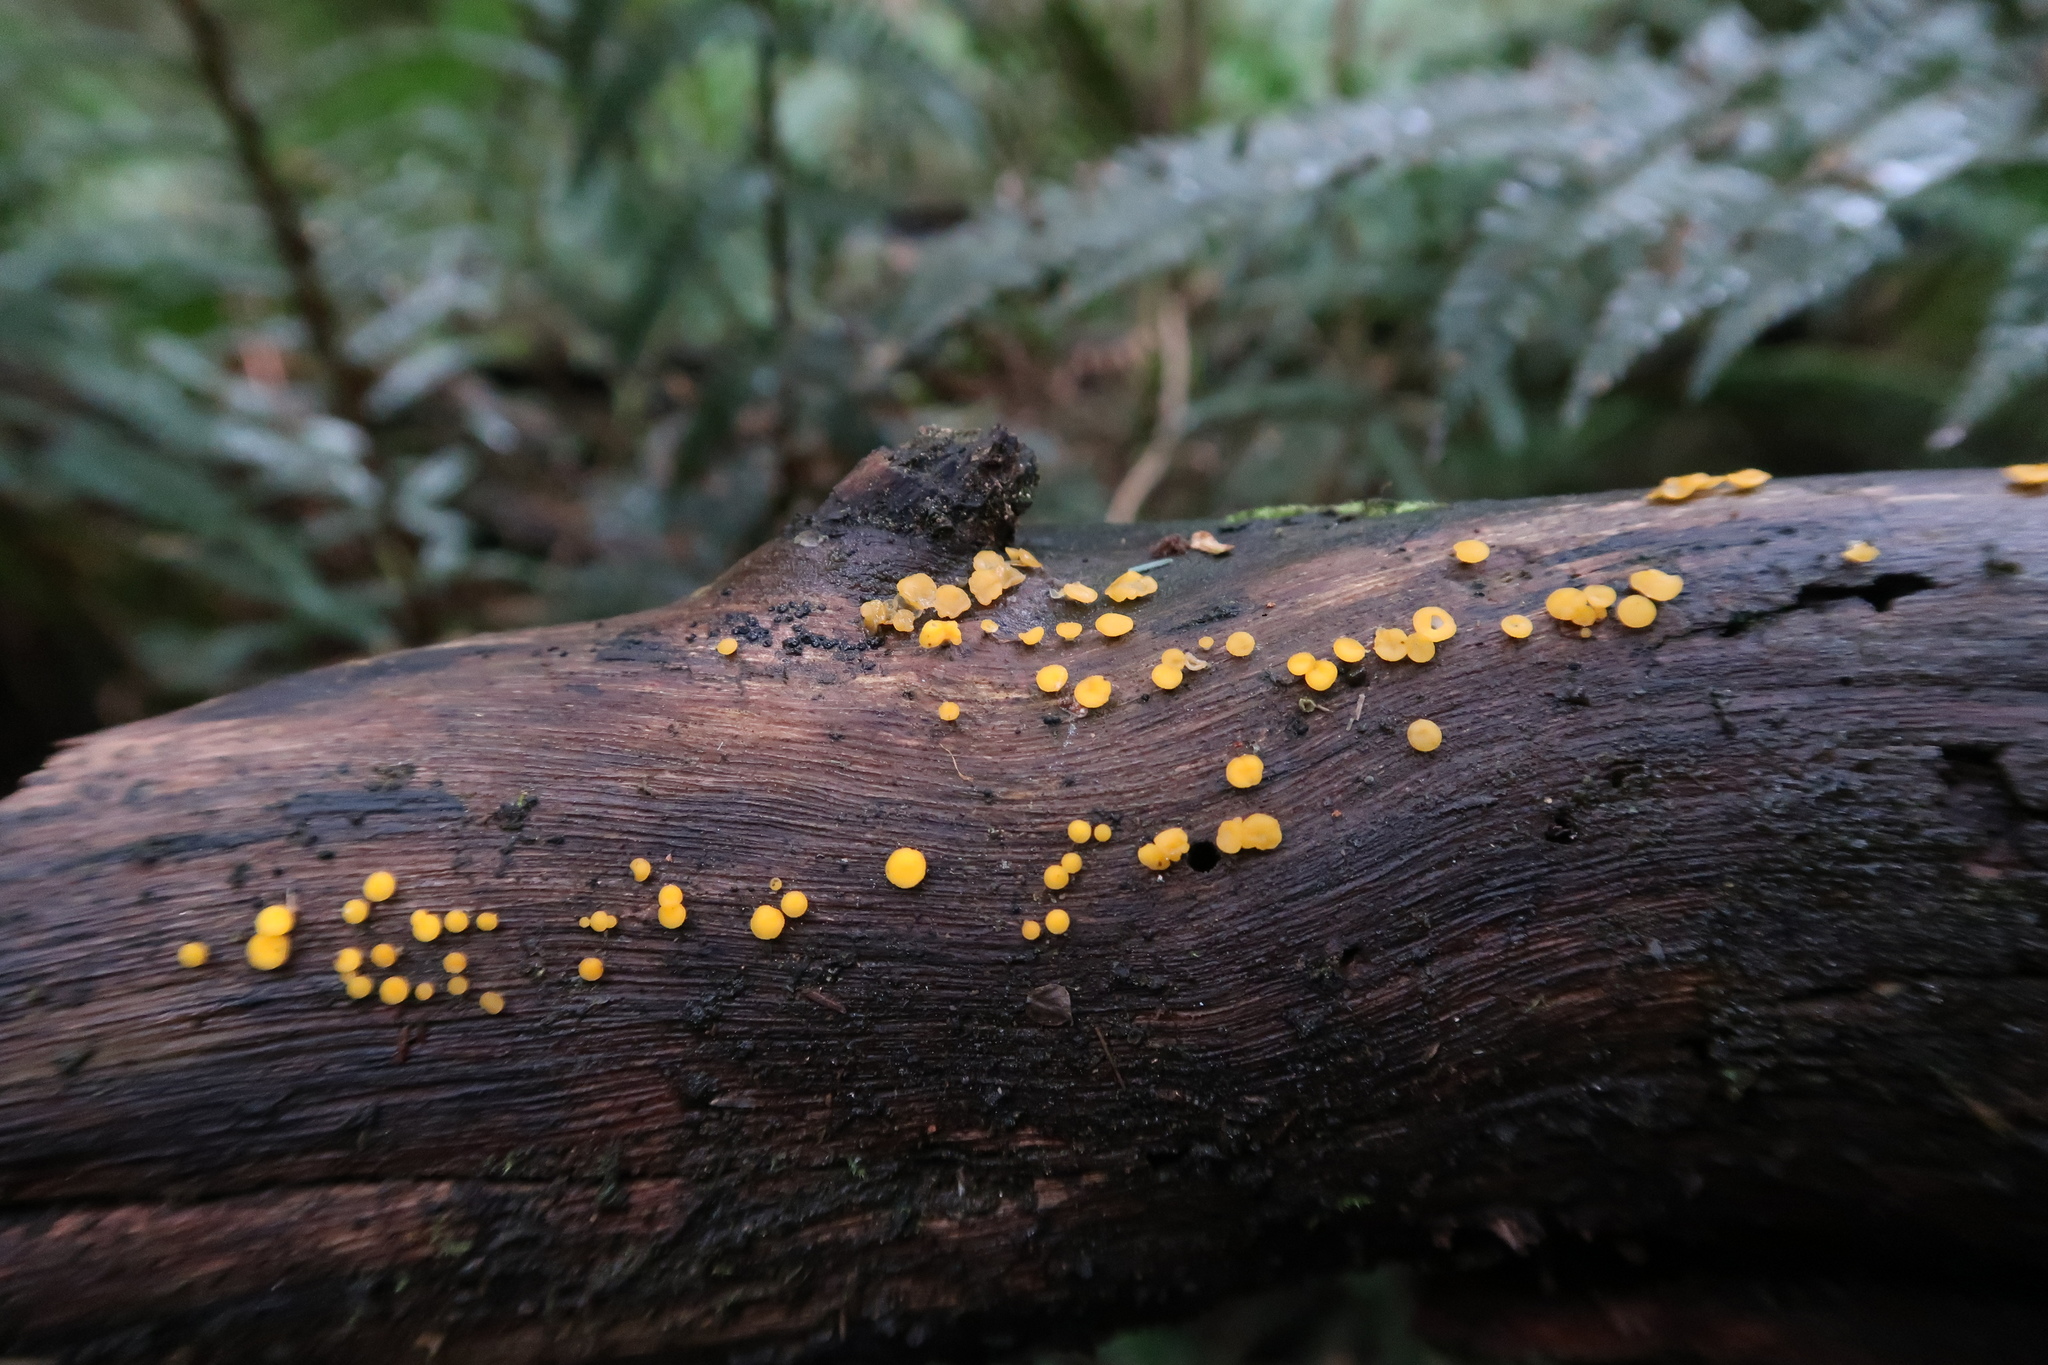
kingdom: Fungi
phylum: Ascomycota
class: Leotiomycetes
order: Helotiales
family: Pezizellaceae
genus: Calycina
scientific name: Calycina citrina
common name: Yellow fairy cups
